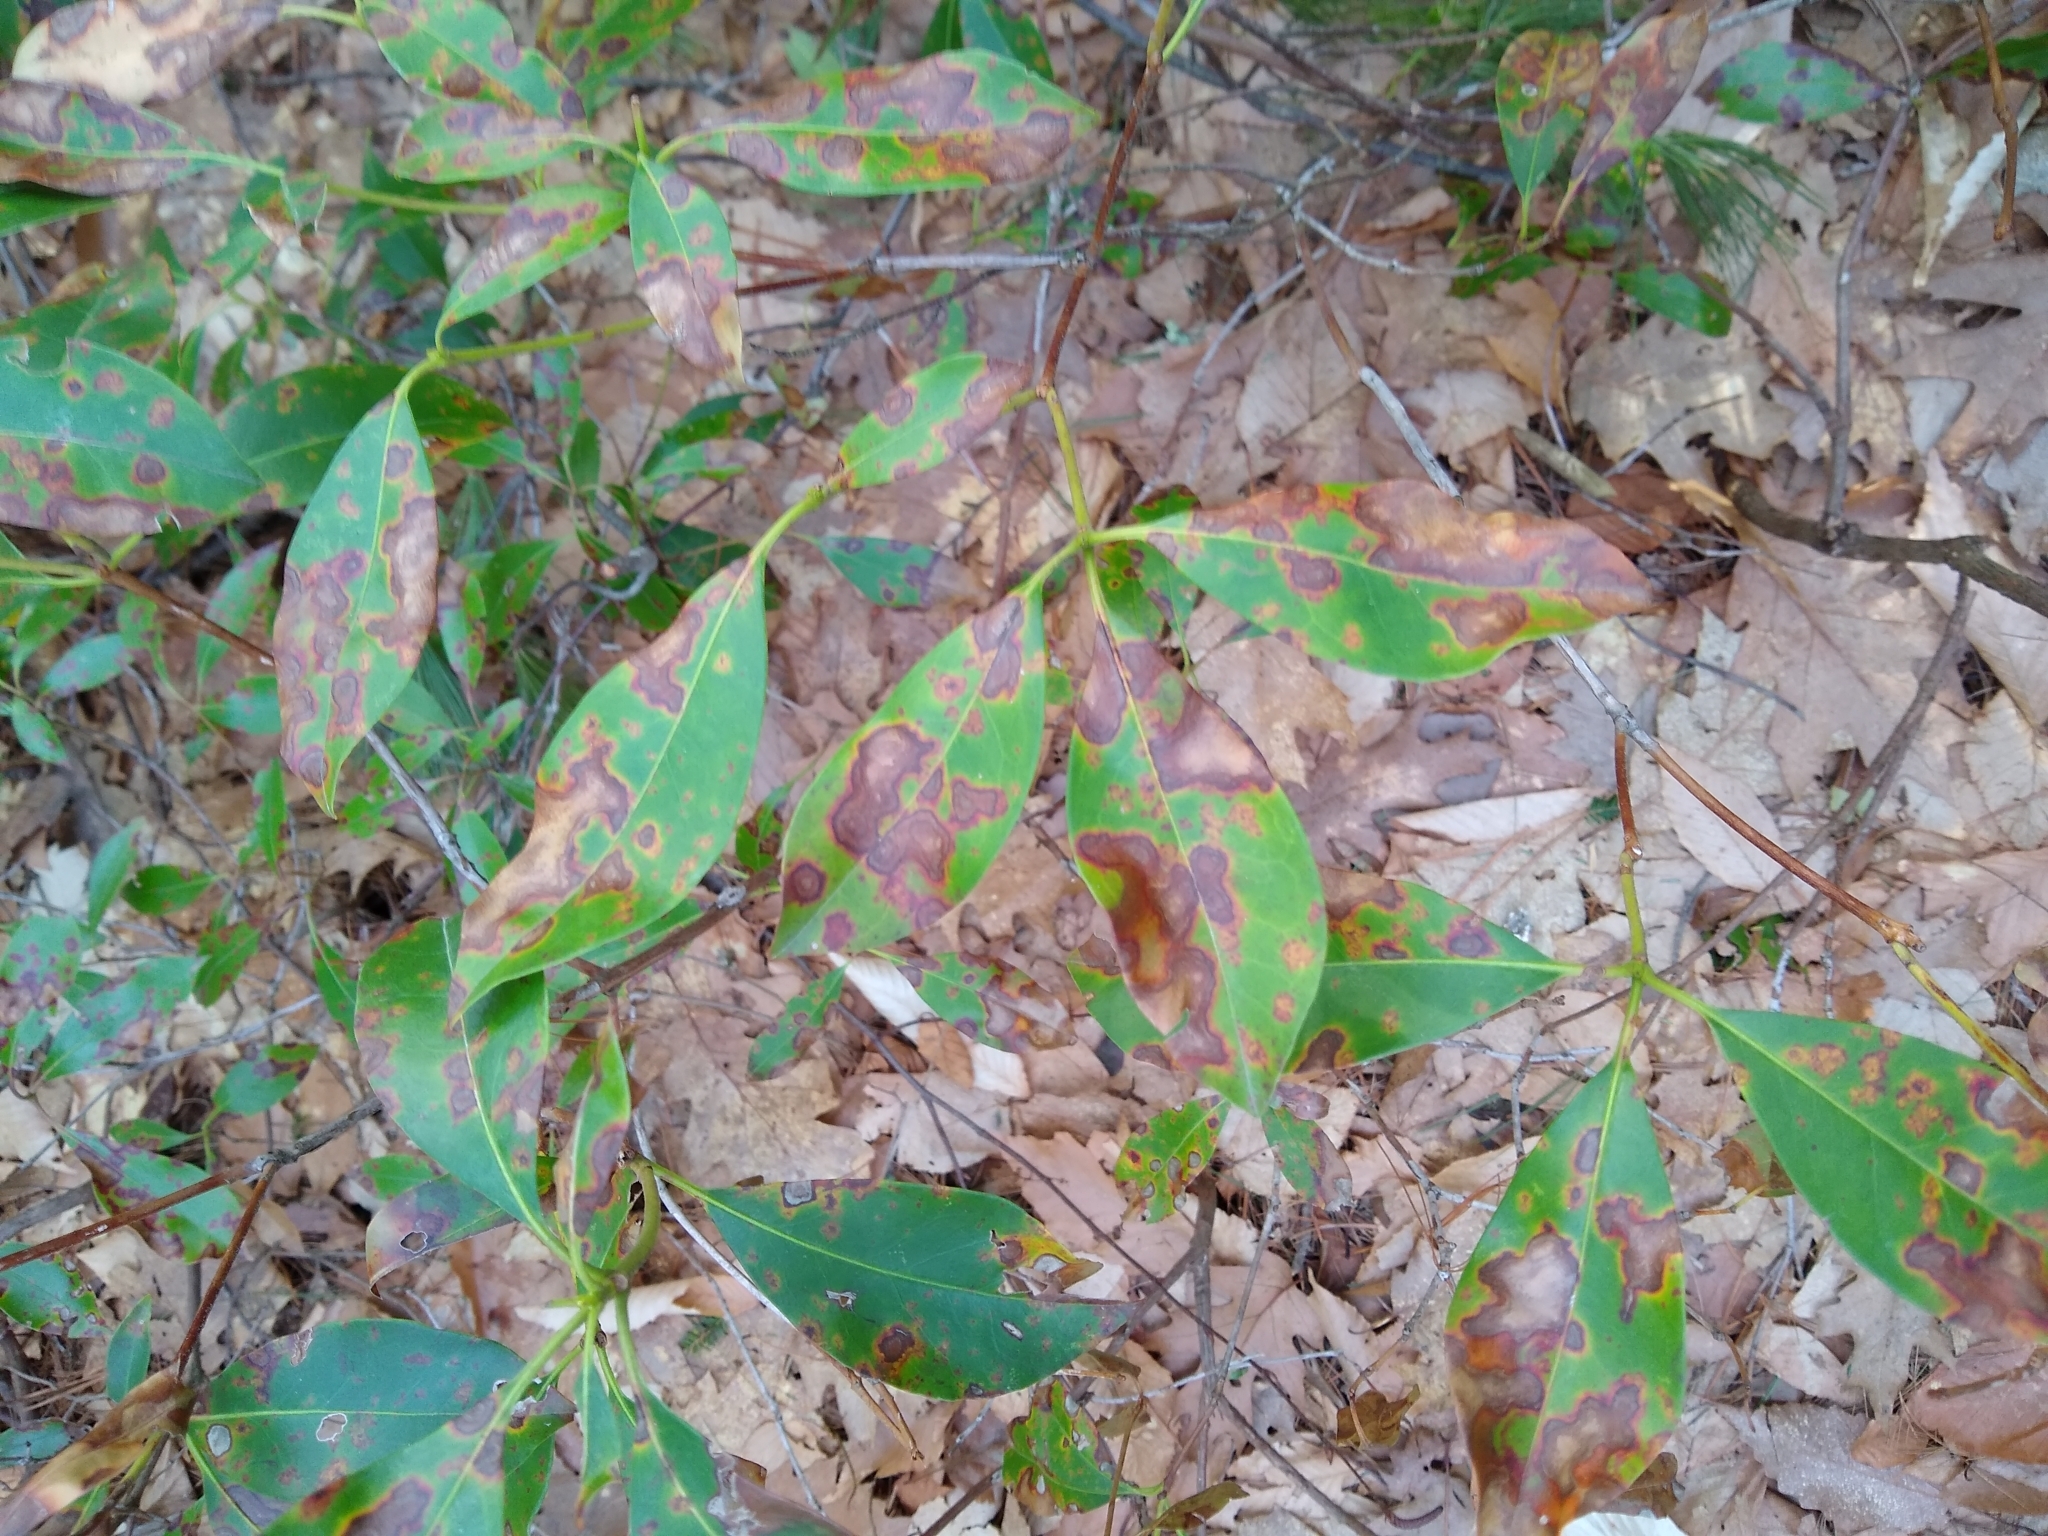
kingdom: Fungi
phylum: Ascomycota
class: Sordariomycetes
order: Diaporthales
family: Diaporthaceae
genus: Diaporthe
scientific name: Diaporthe kalmiae
